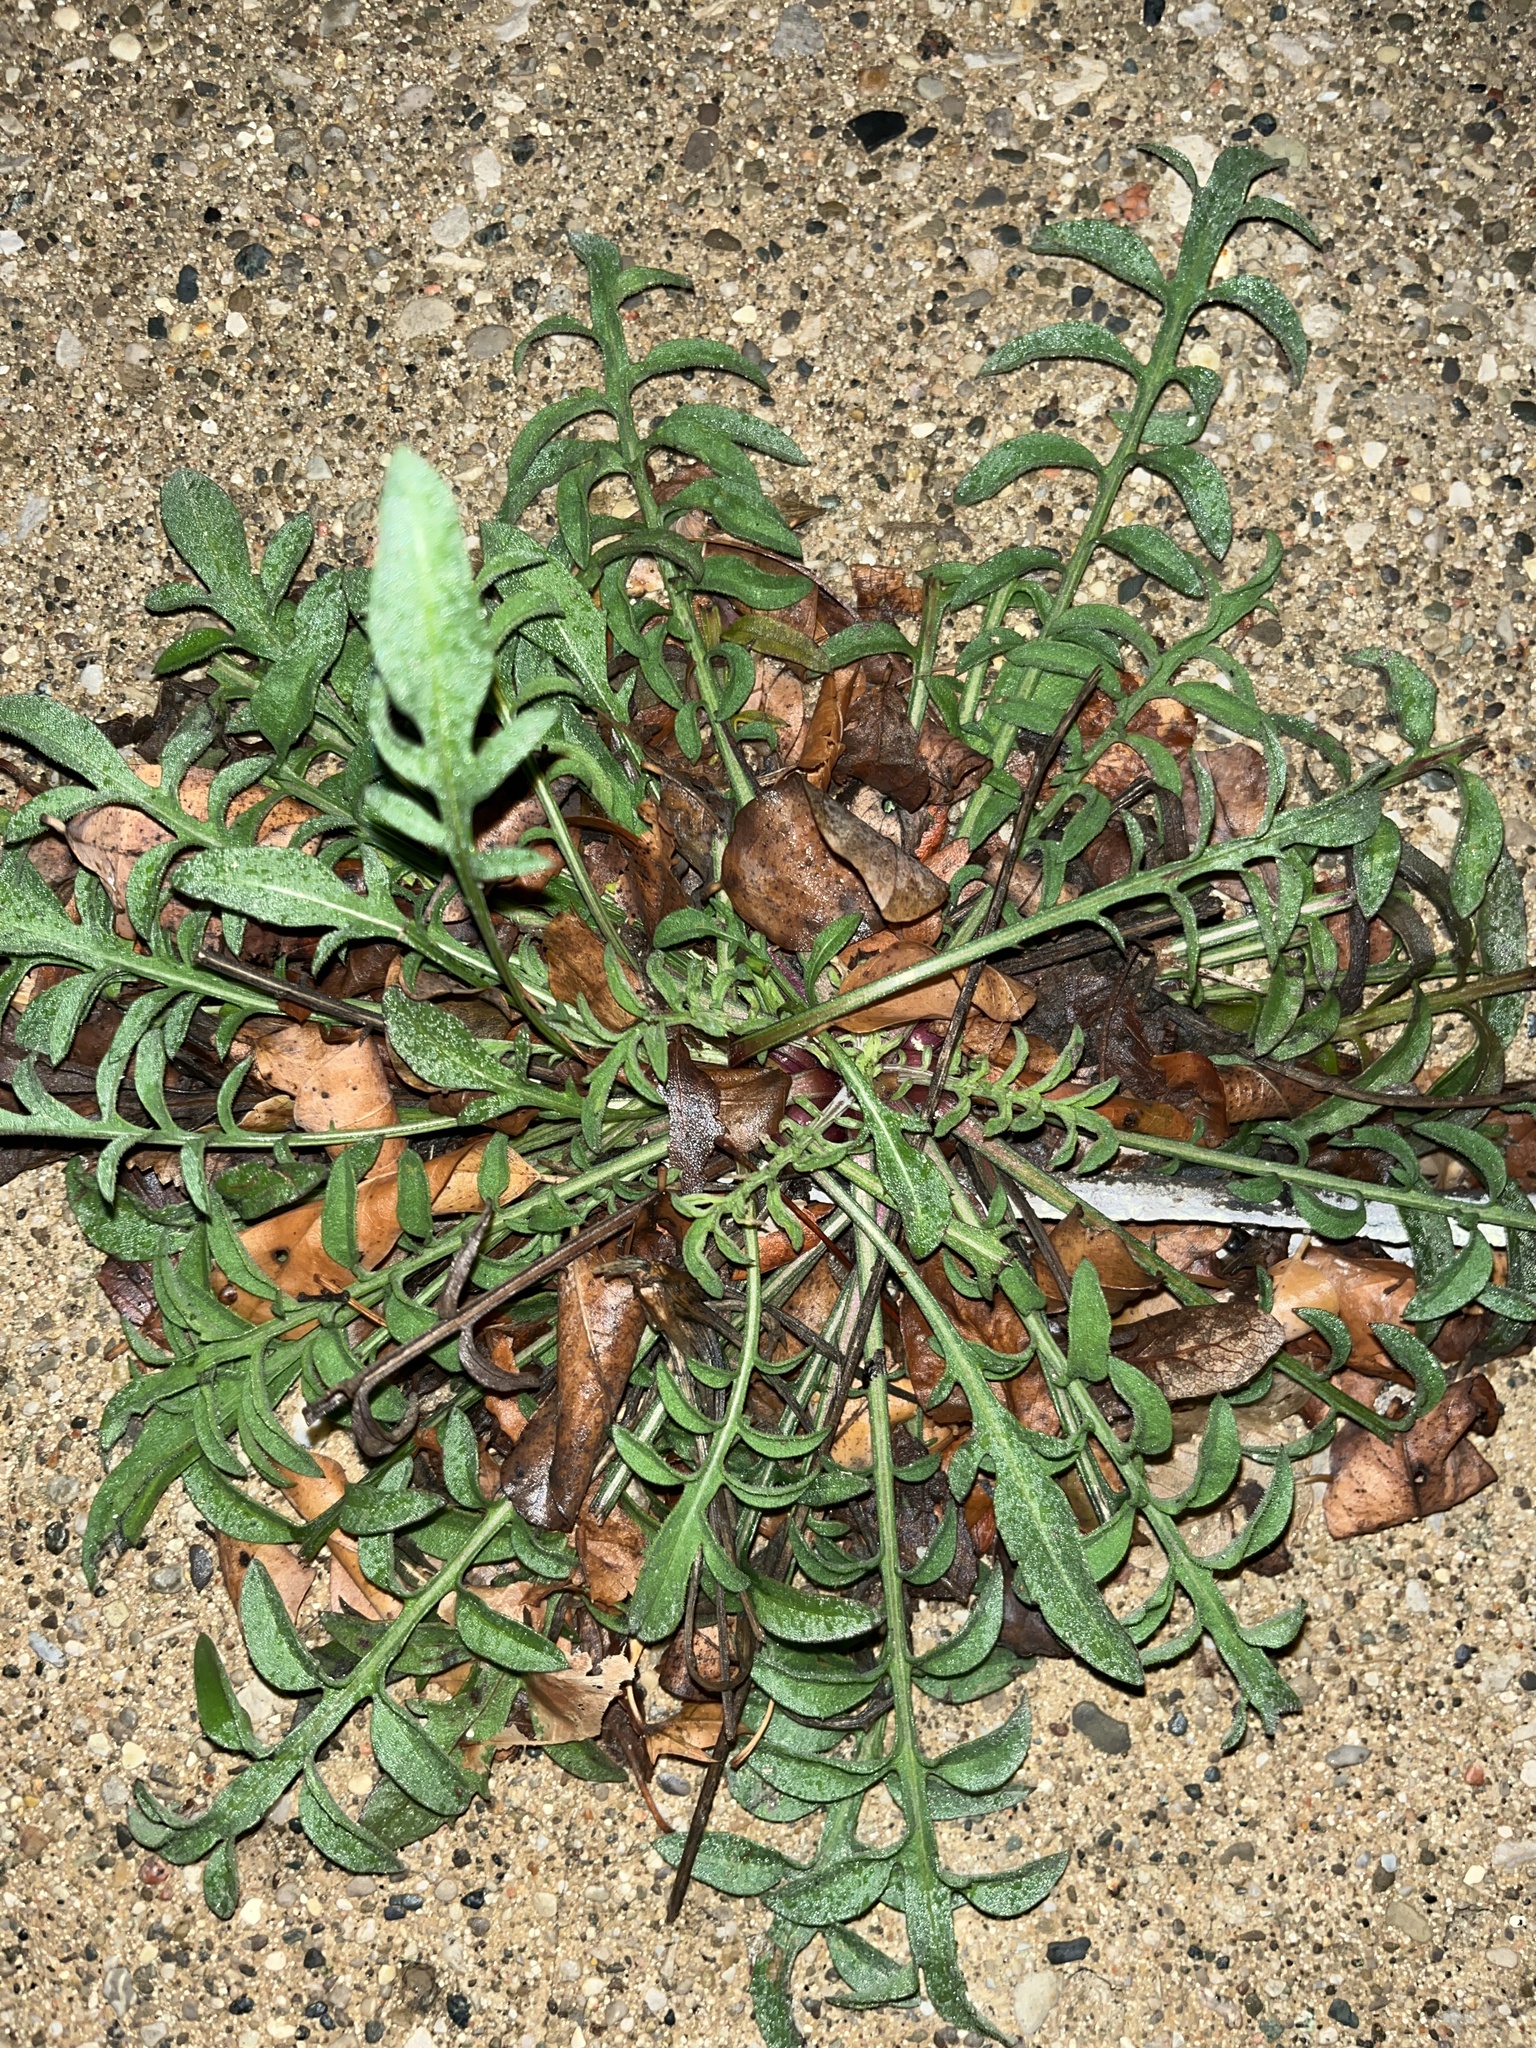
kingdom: Plantae
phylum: Tracheophyta
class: Magnoliopsida
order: Asterales
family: Asteraceae
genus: Centaurea
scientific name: Centaurea stoebe
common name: Spotted knapweed
